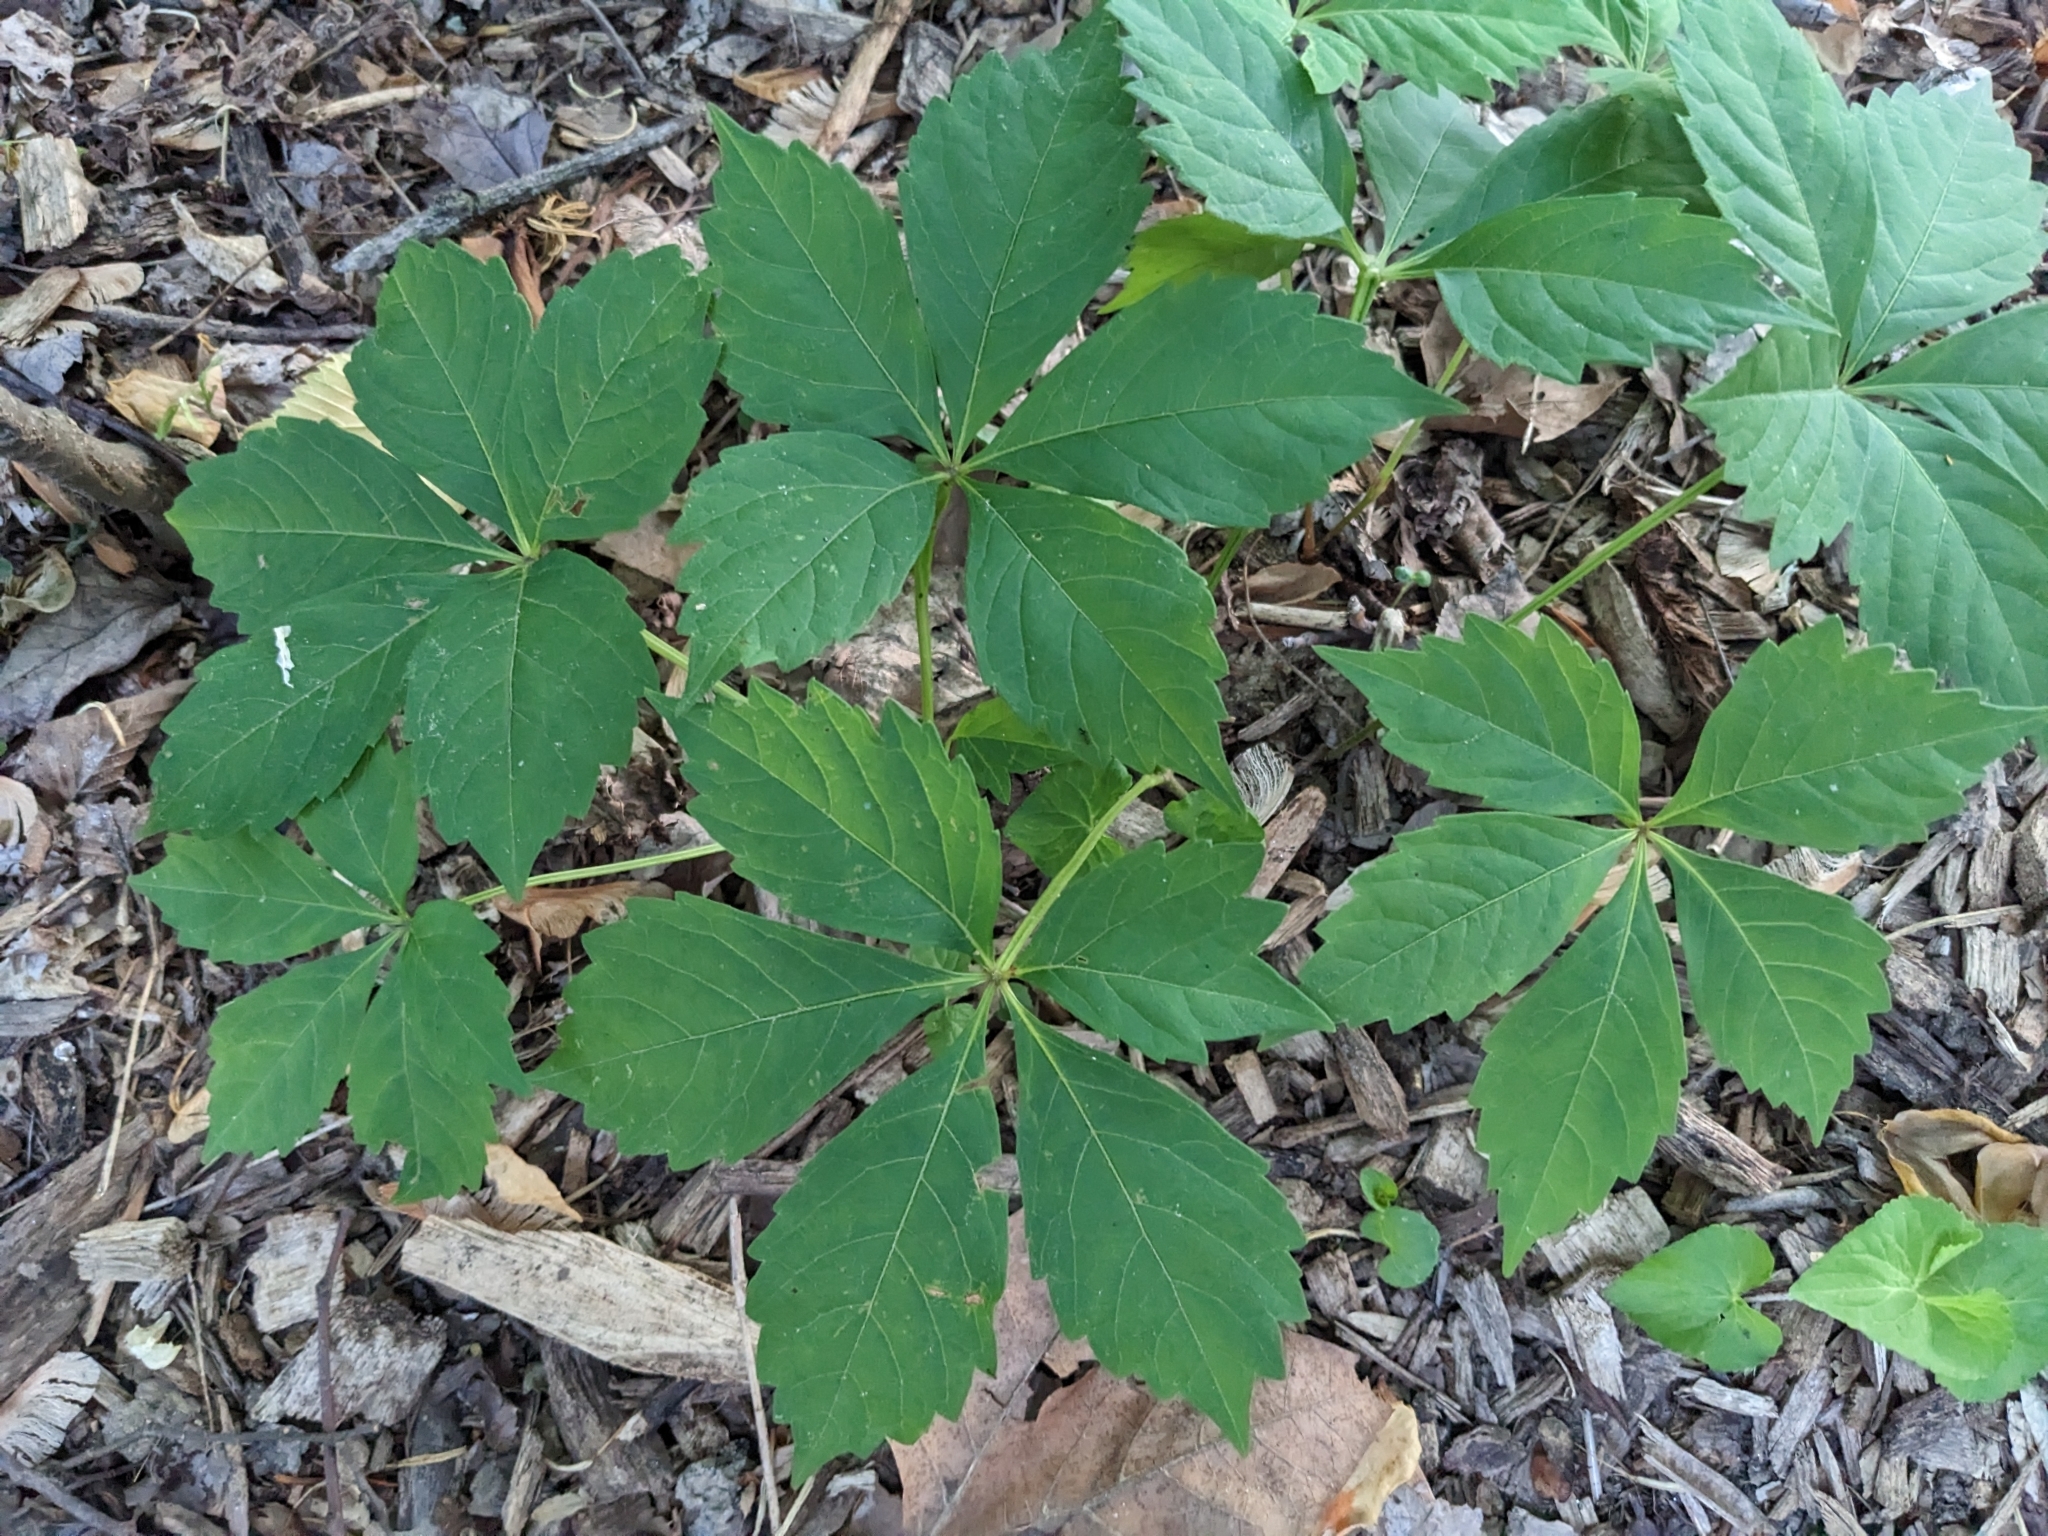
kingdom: Plantae
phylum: Tracheophyta
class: Magnoliopsida
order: Vitales
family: Vitaceae
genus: Parthenocissus
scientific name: Parthenocissus quinquefolia
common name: Virginia-creeper
